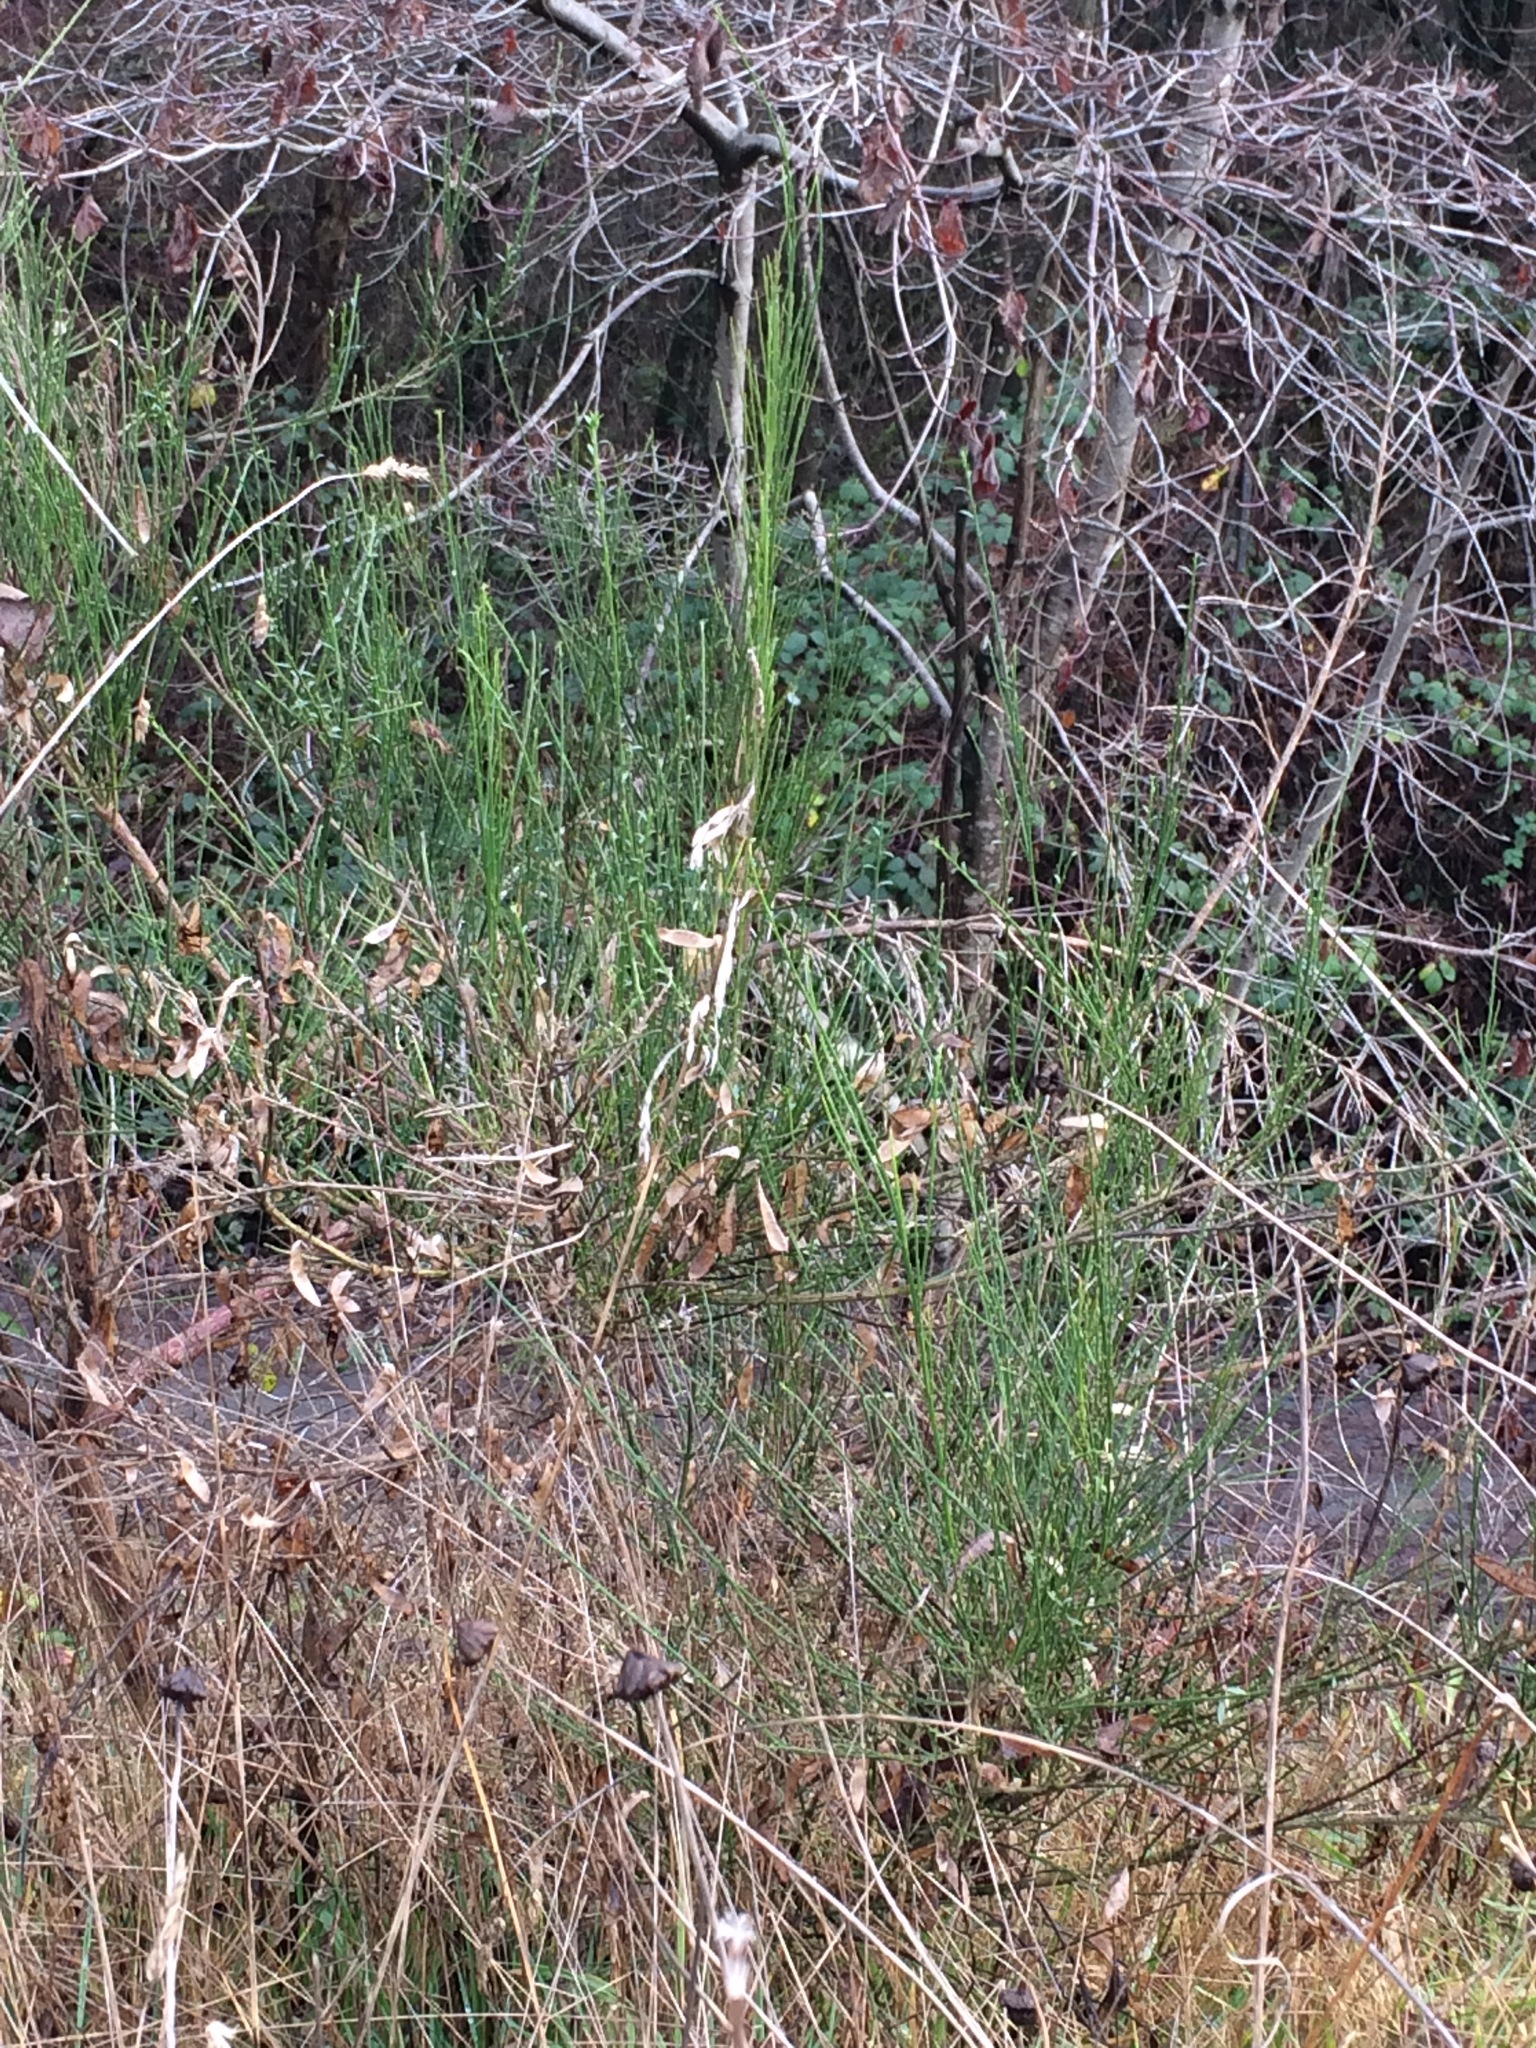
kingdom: Plantae
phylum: Tracheophyta
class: Magnoliopsida
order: Fabales
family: Fabaceae
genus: Cytisus
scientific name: Cytisus scoparius
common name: Scotch broom
